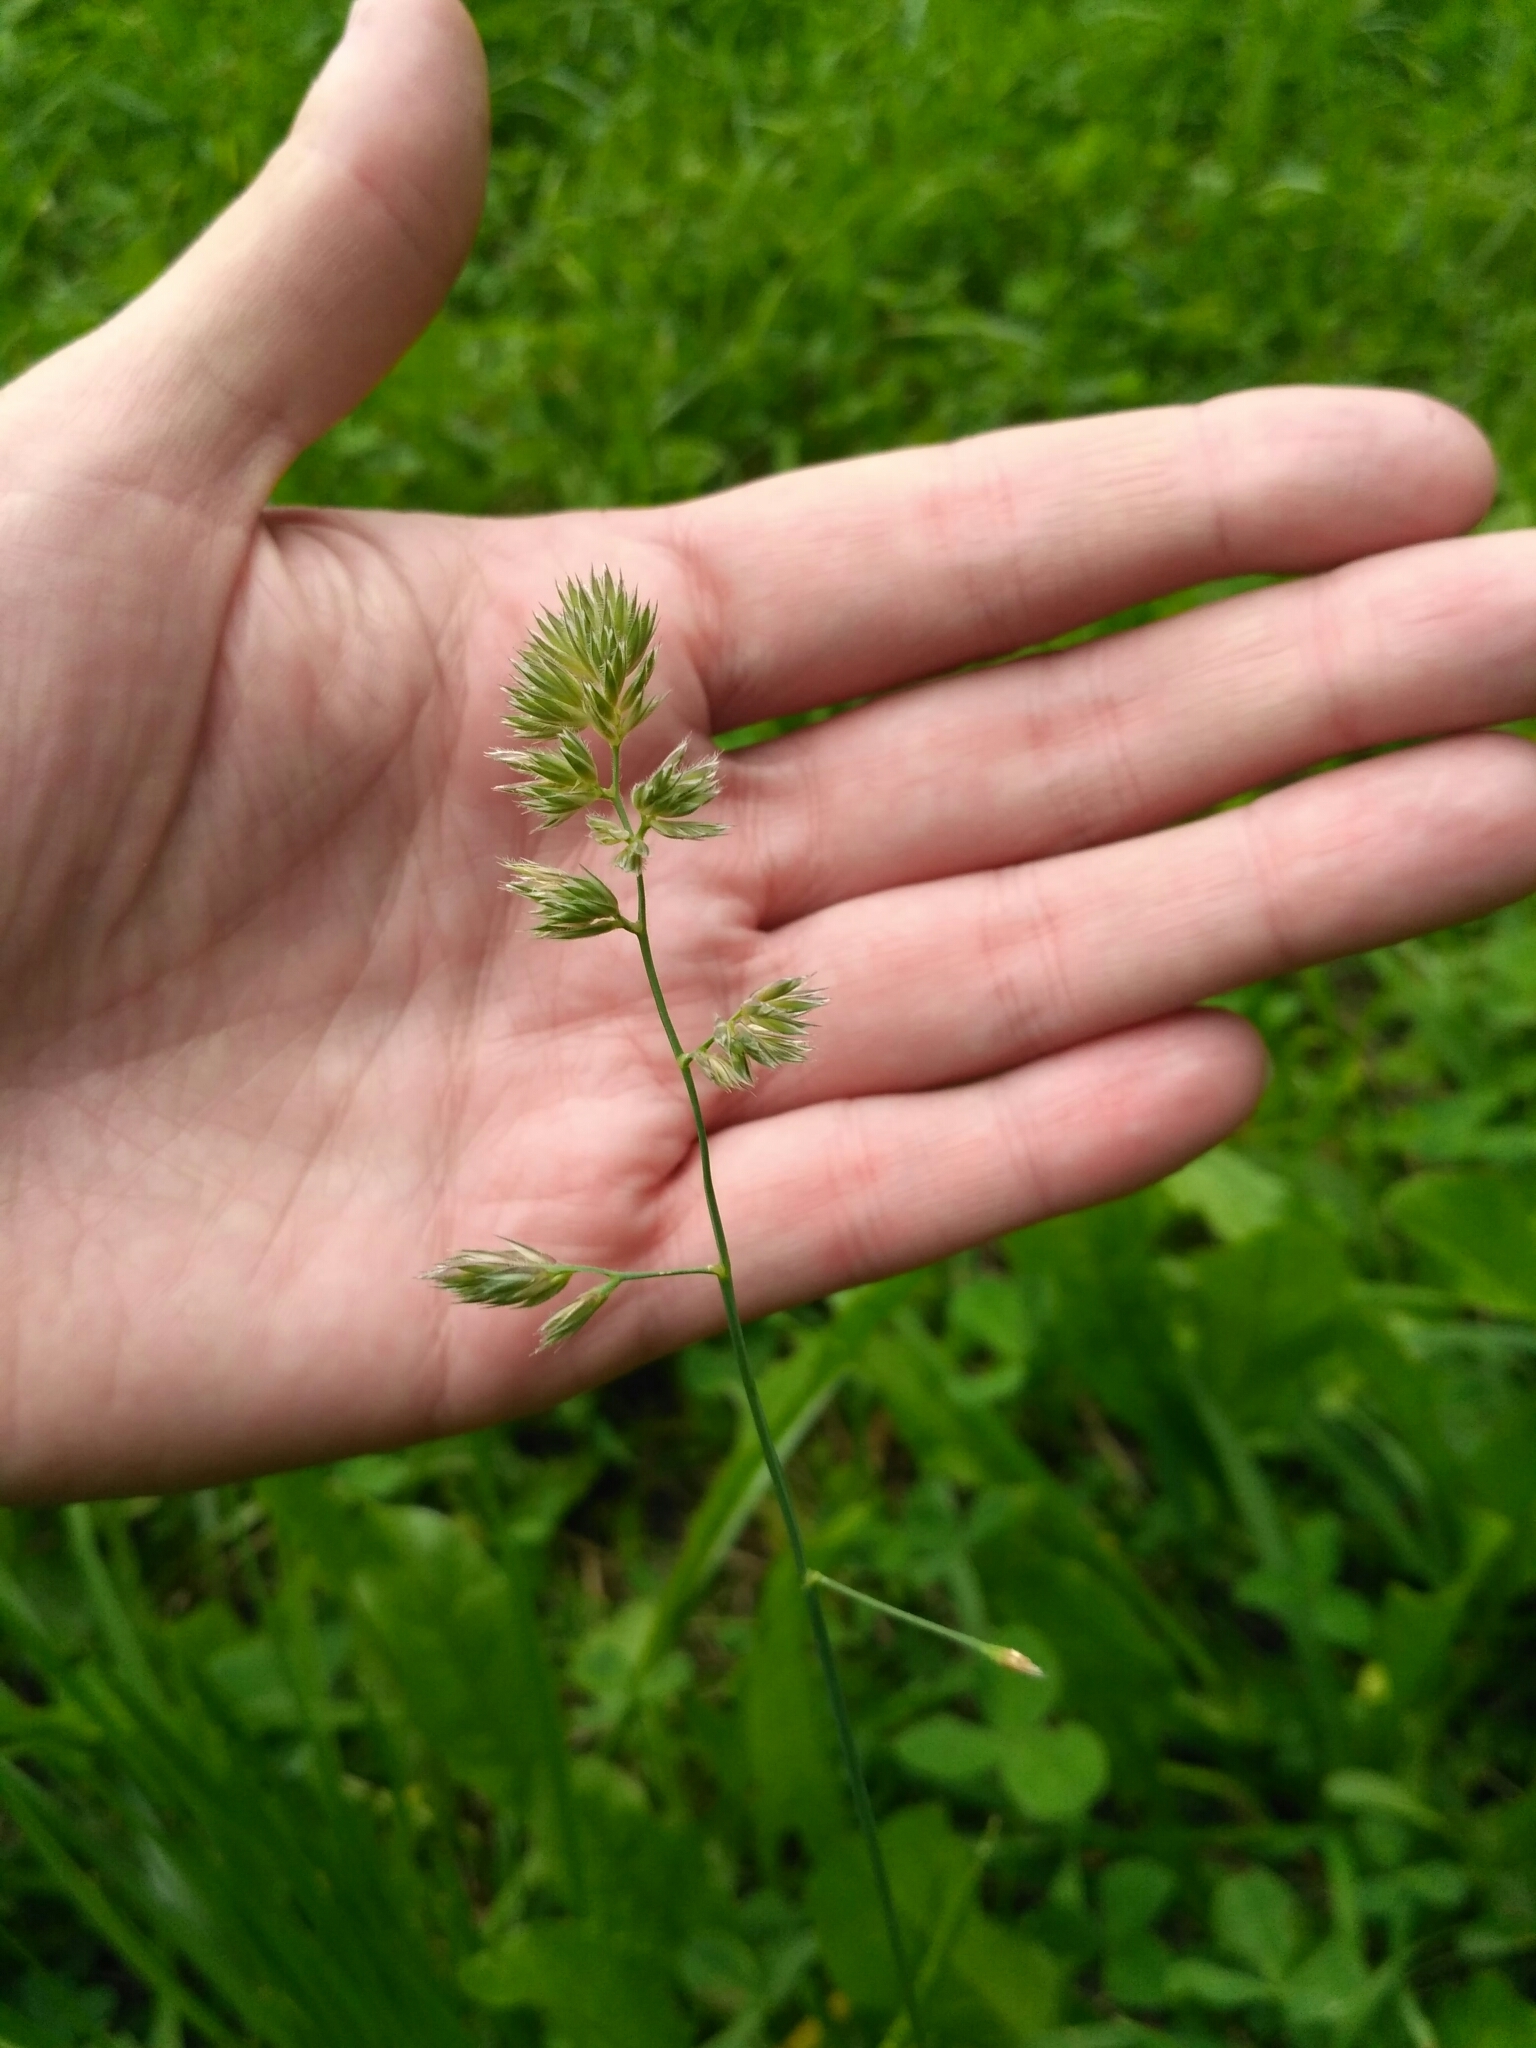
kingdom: Plantae
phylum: Tracheophyta
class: Liliopsida
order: Poales
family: Poaceae
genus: Dactylis
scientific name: Dactylis glomerata
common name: Orchardgrass
